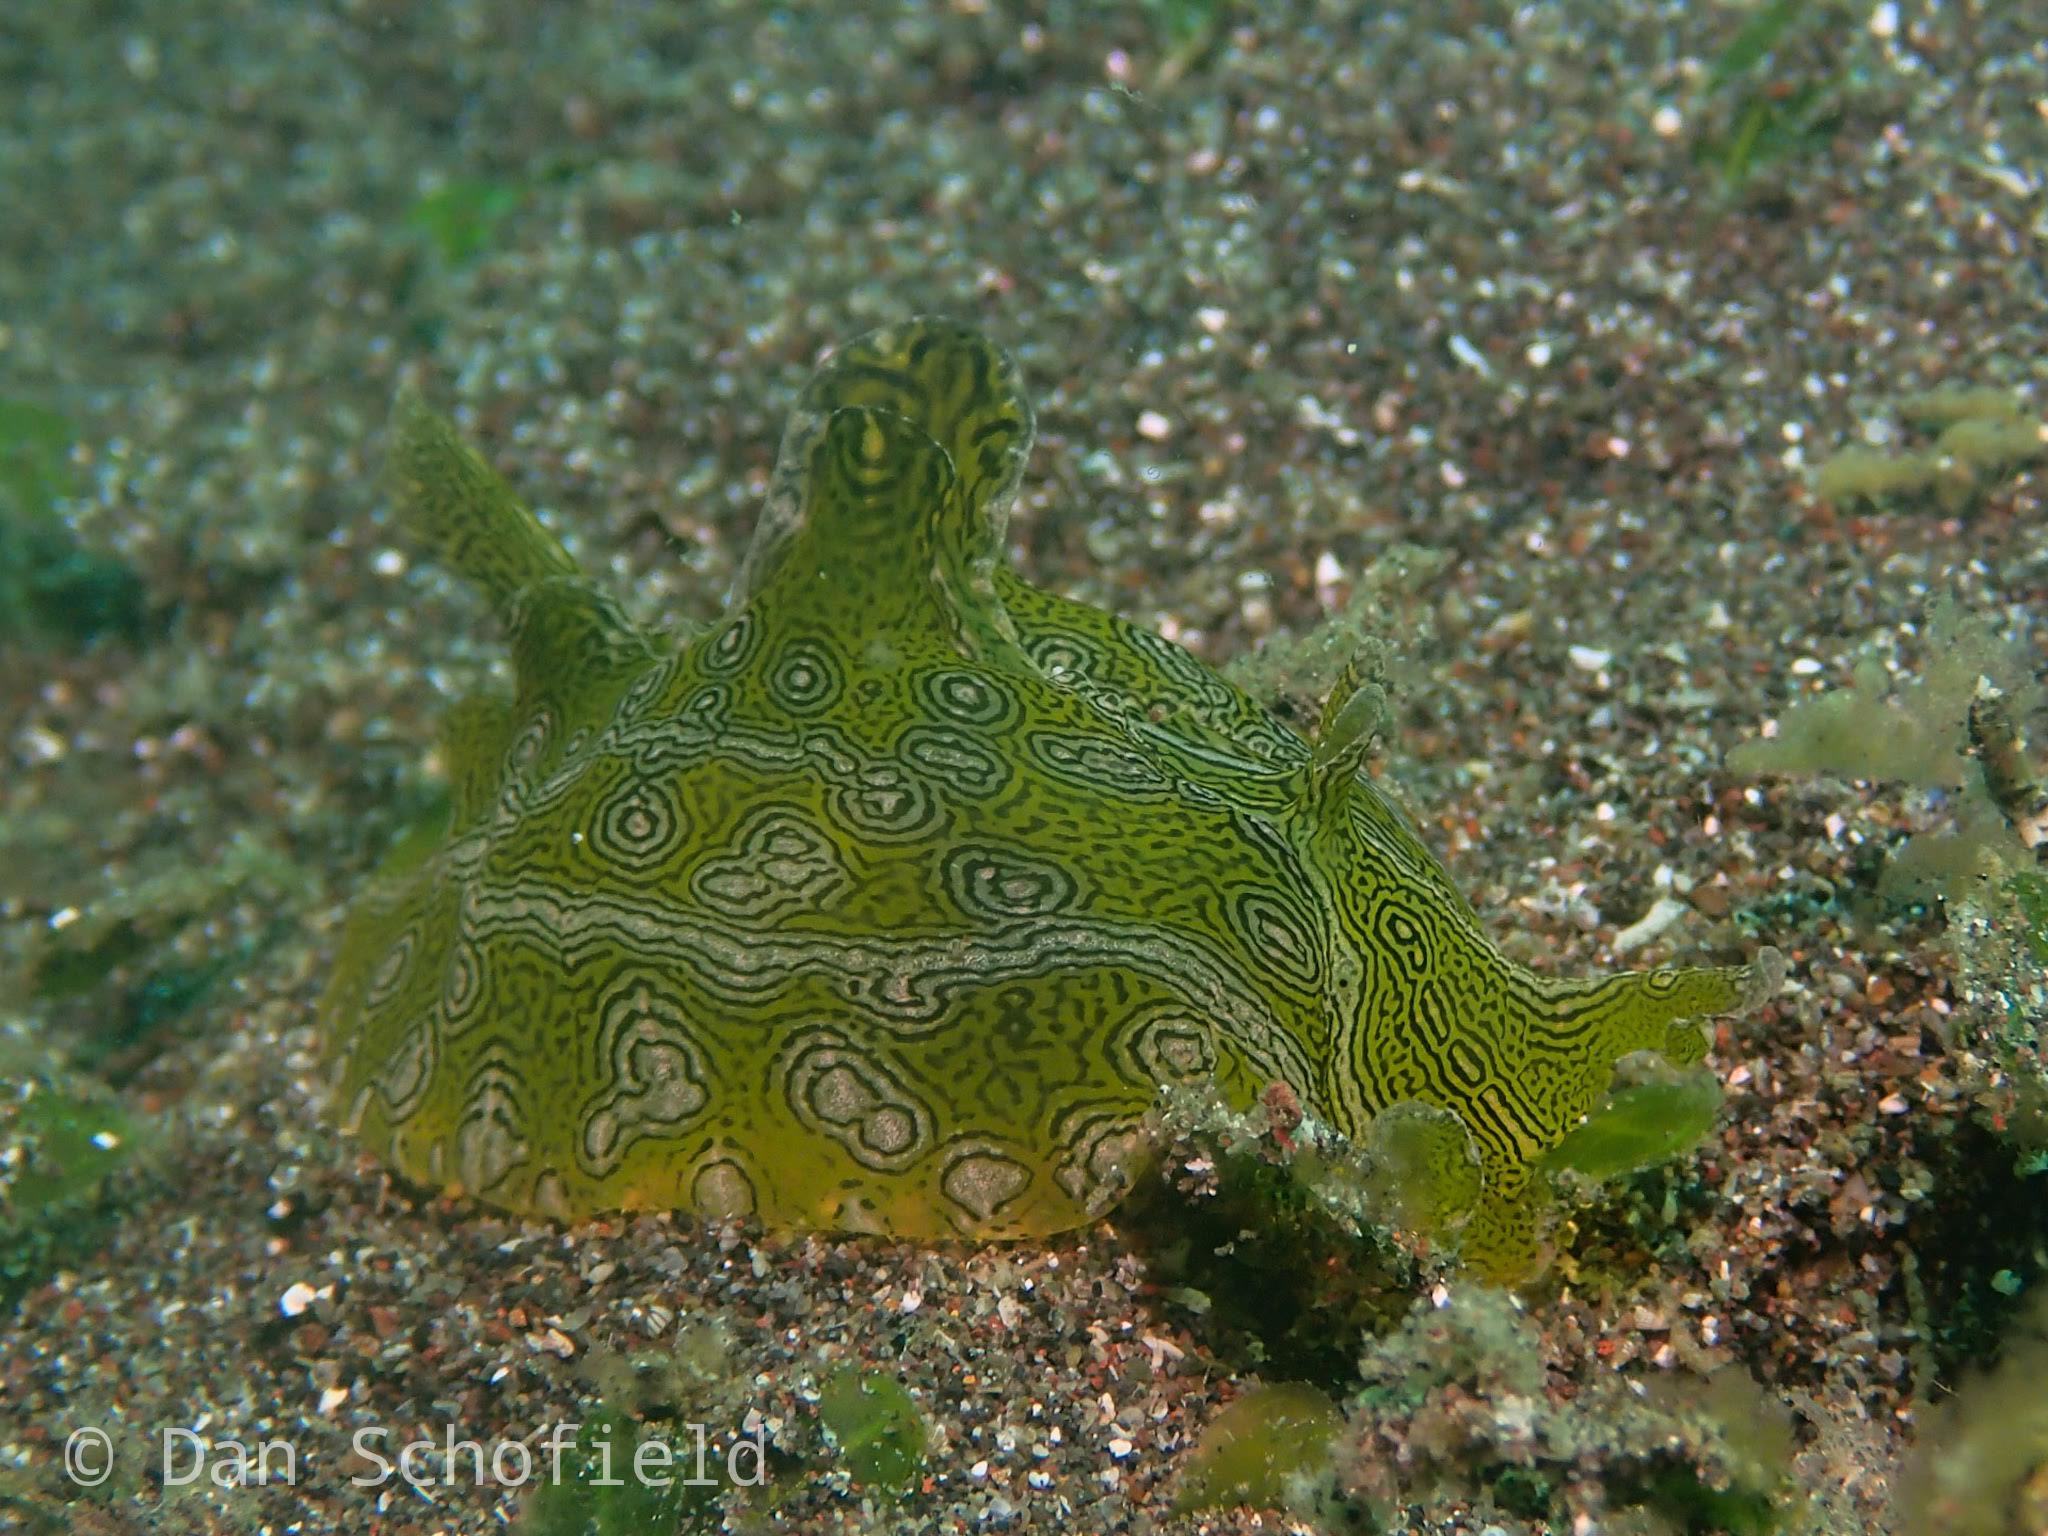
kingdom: Animalia
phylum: Mollusca
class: Gastropoda
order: Aplysiida
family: Aplysiidae
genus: Syphonota
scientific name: Syphonota geographica
